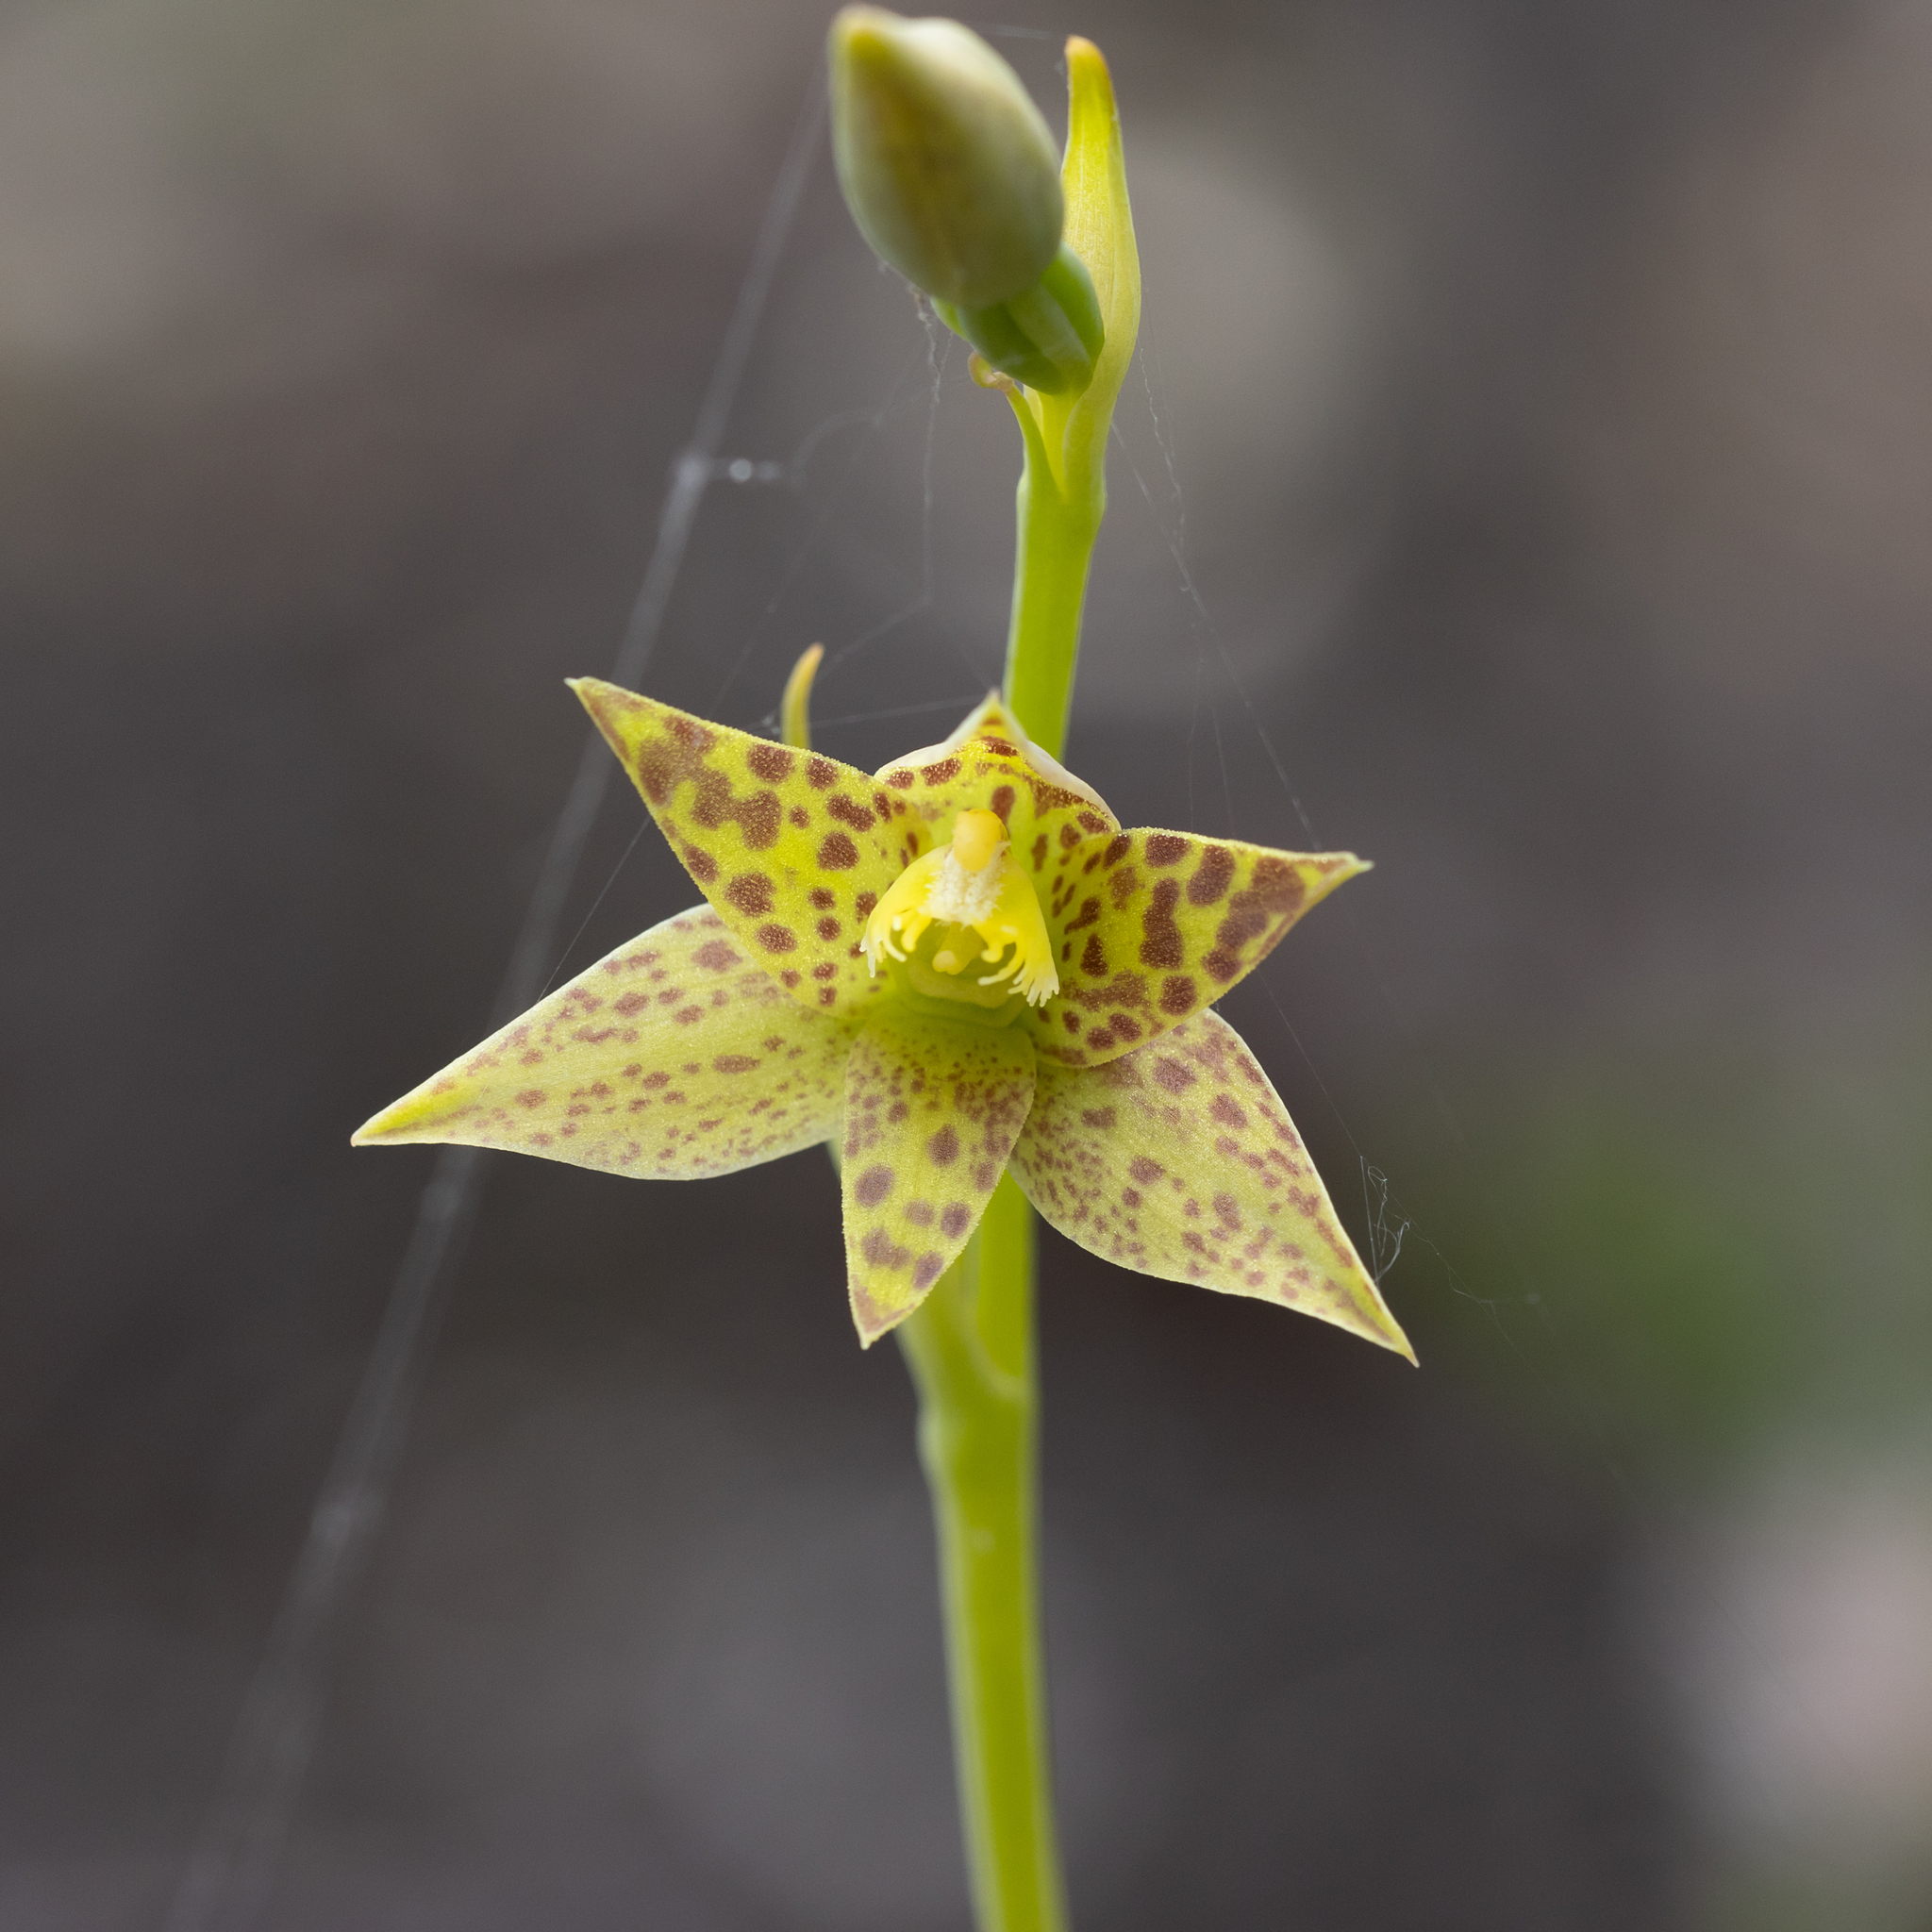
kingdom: Plantae
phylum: Tracheophyta
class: Liliopsida
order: Asparagales
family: Orchidaceae
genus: Thelymitra
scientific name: Thelymitra benthamiana
